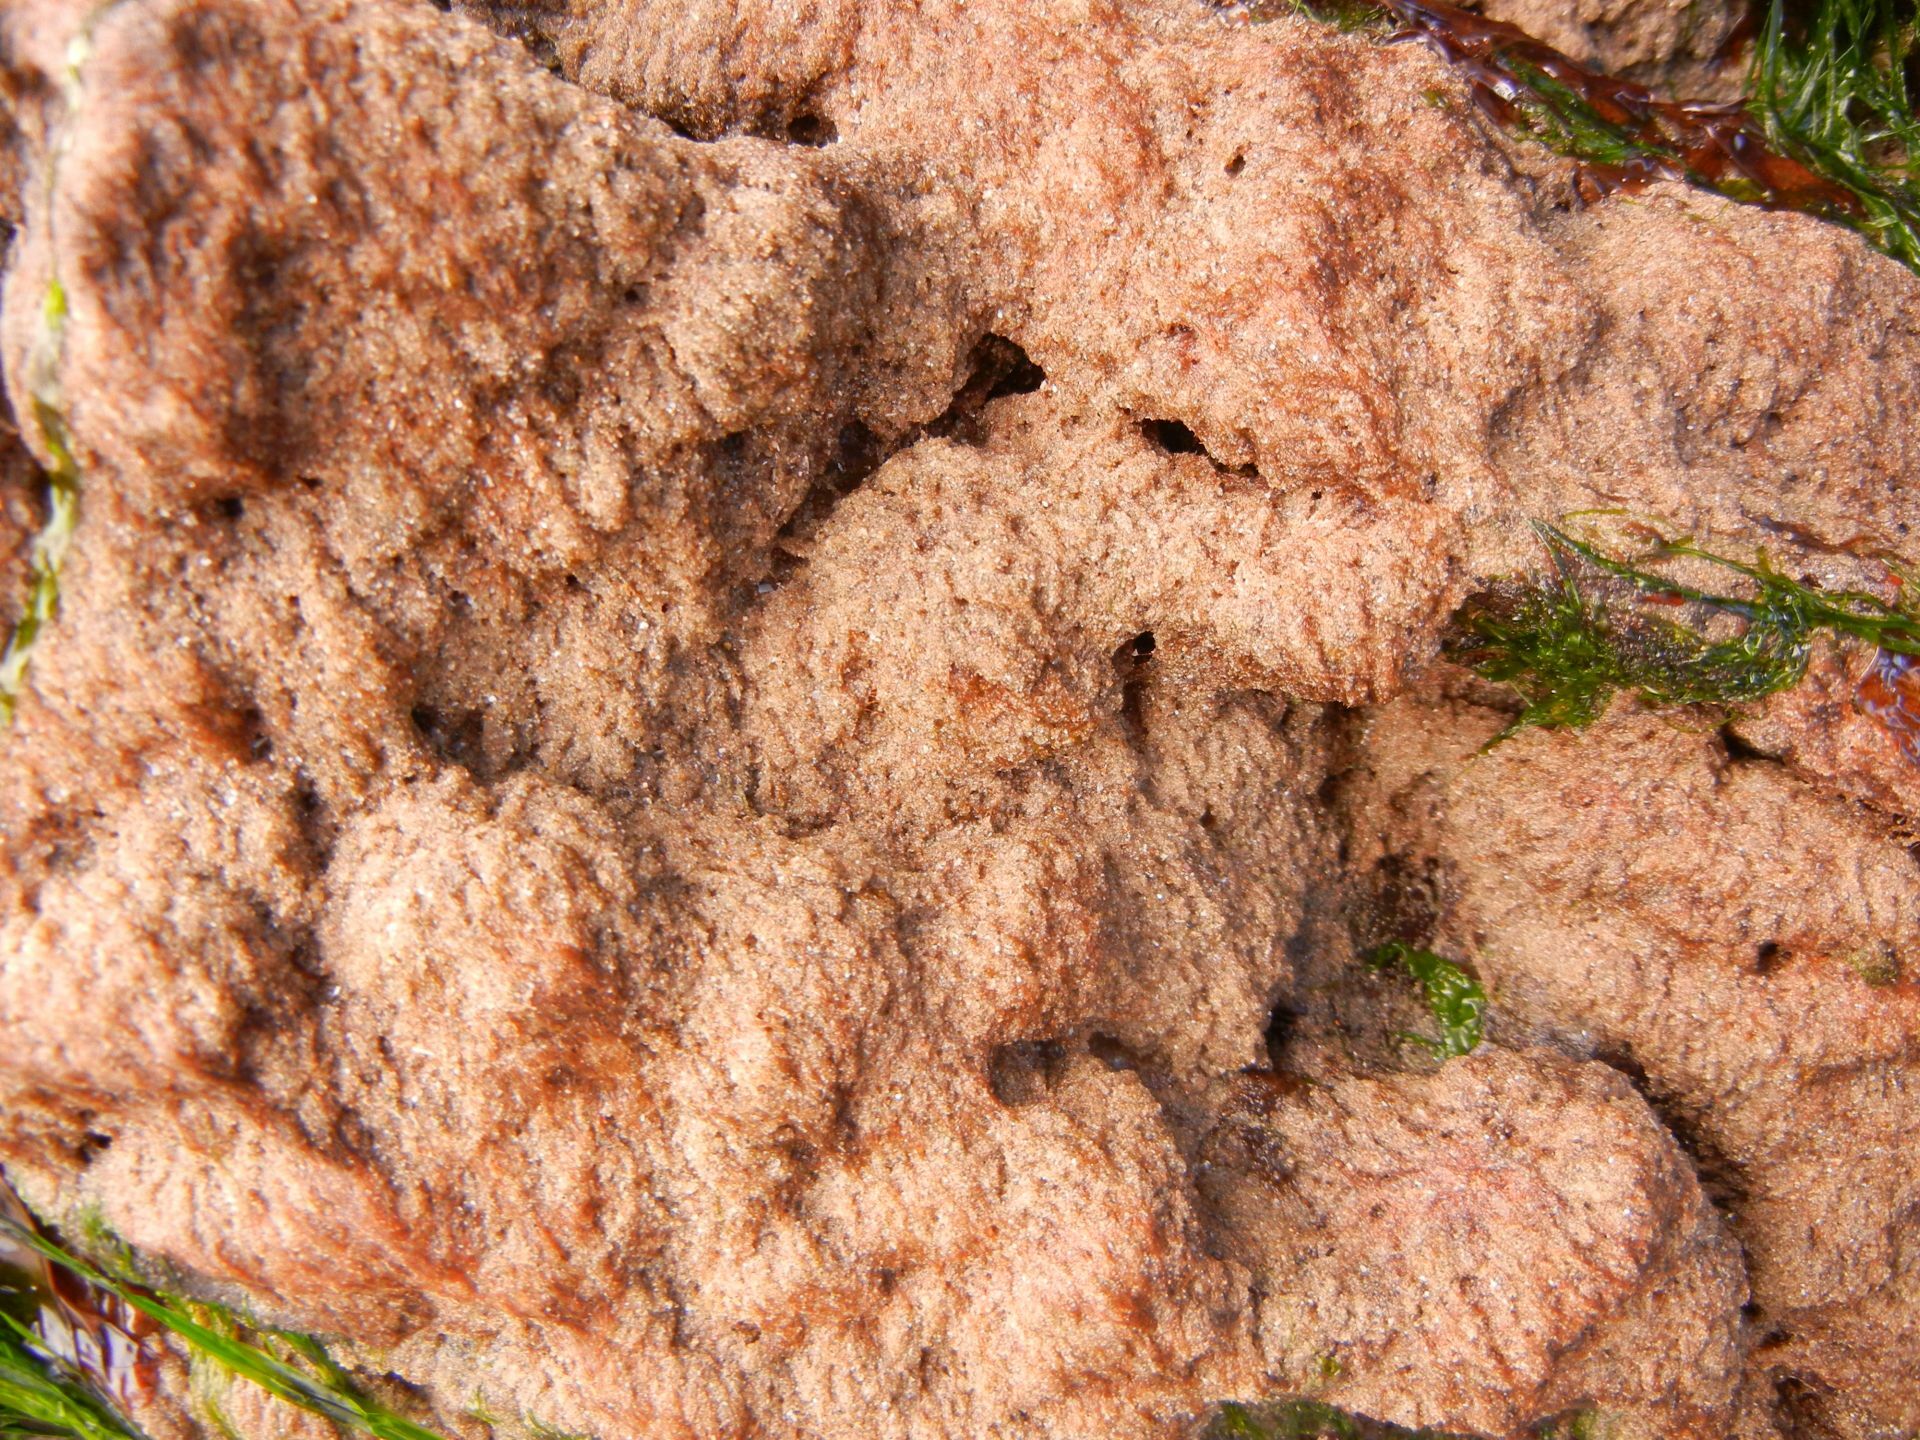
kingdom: Plantae
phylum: Rhodophyta
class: Florideophyceae
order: Palmariales
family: Rhodothamniellaceae
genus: Rhodothamniella
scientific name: Rhodothamniella floridula
